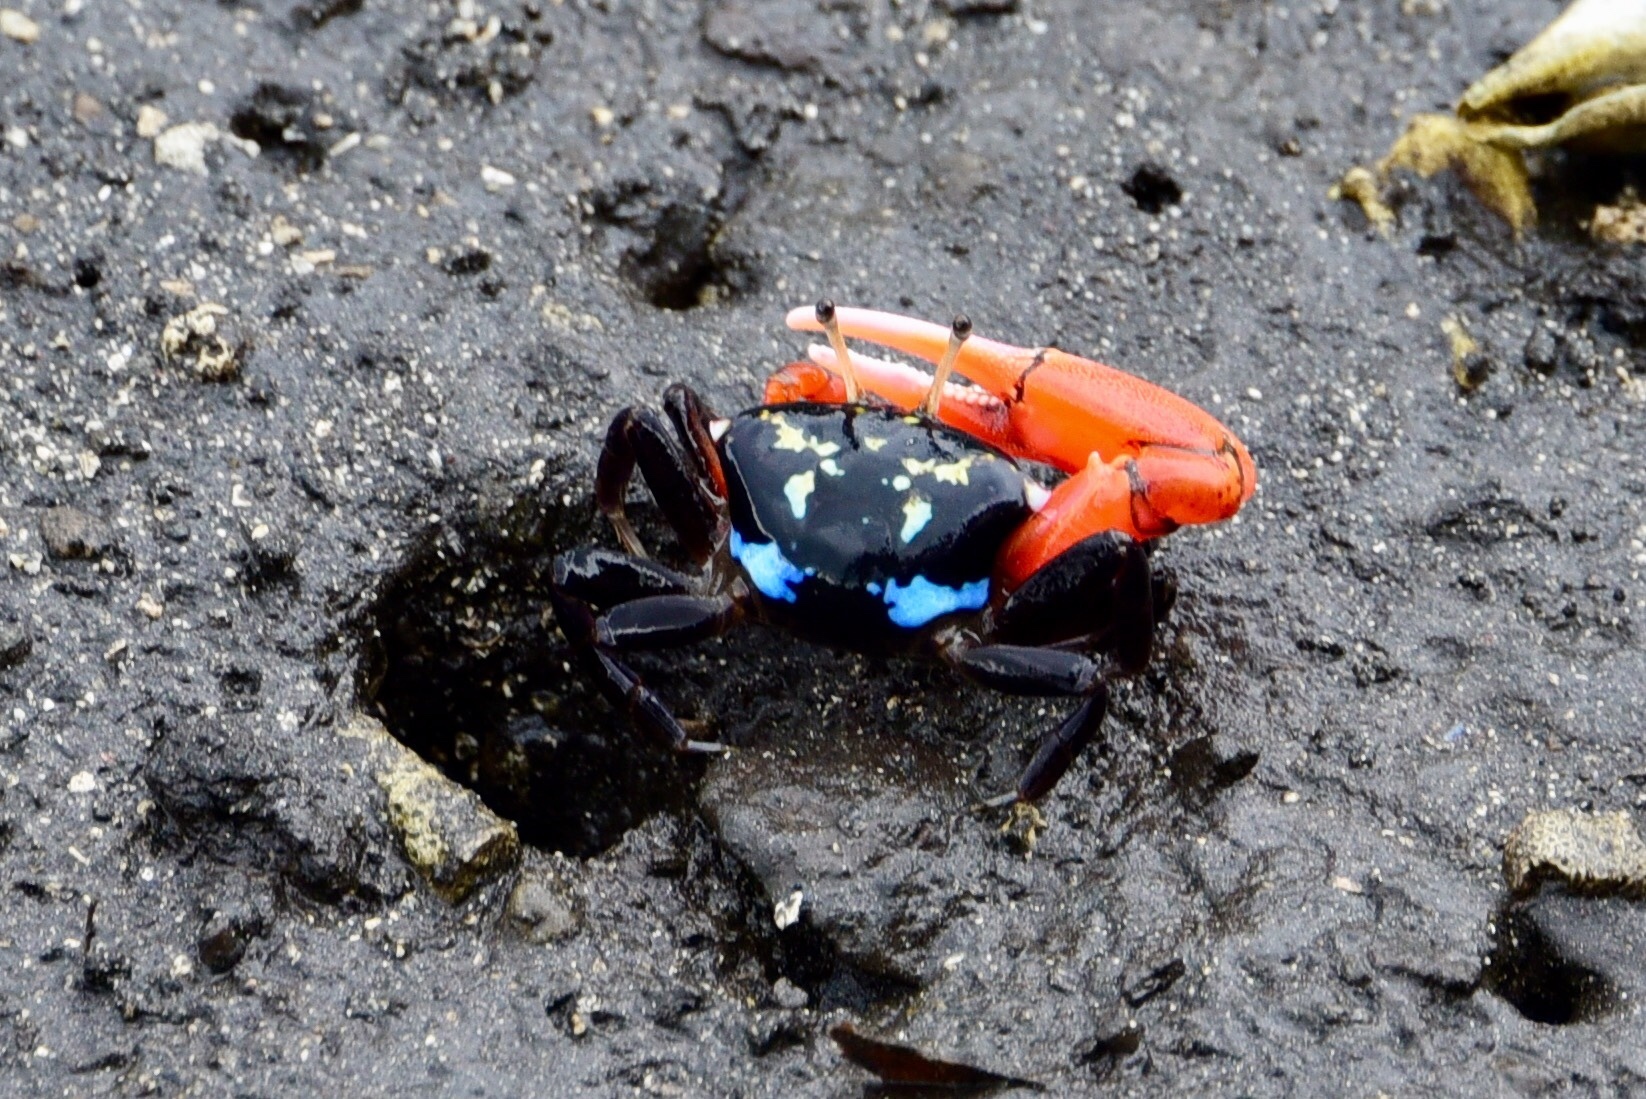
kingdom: Animalia
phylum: Arthropoda
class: Malacostraca
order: Decapoda
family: Ocypodidae
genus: Paraleptuca
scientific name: Paraleptuca crassipes
